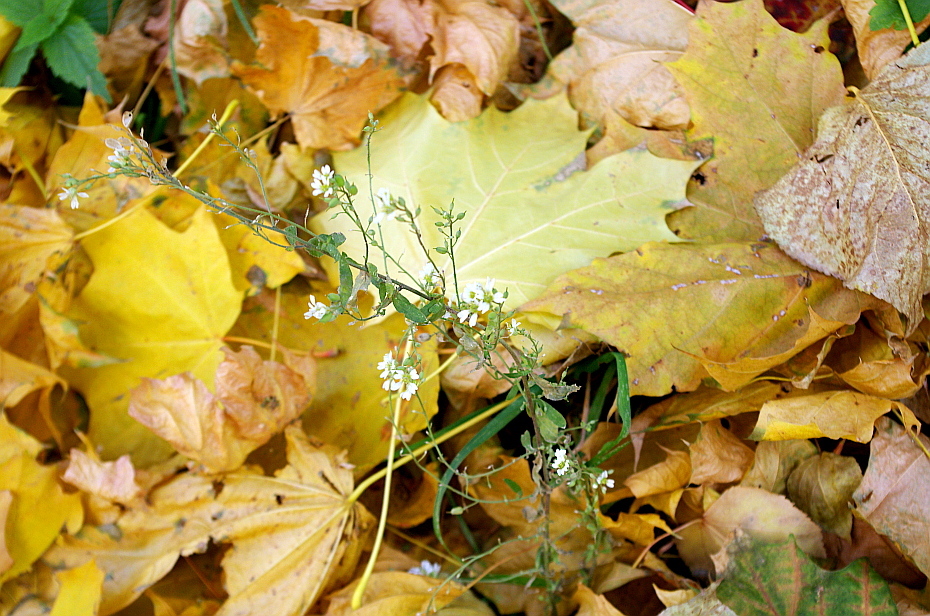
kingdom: Plantae
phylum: Tracheophyta
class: Magnoliopsida
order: Brassicales
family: Brassicaceae
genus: Berteroa
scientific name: Berteroa incana
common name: Hoary alison
